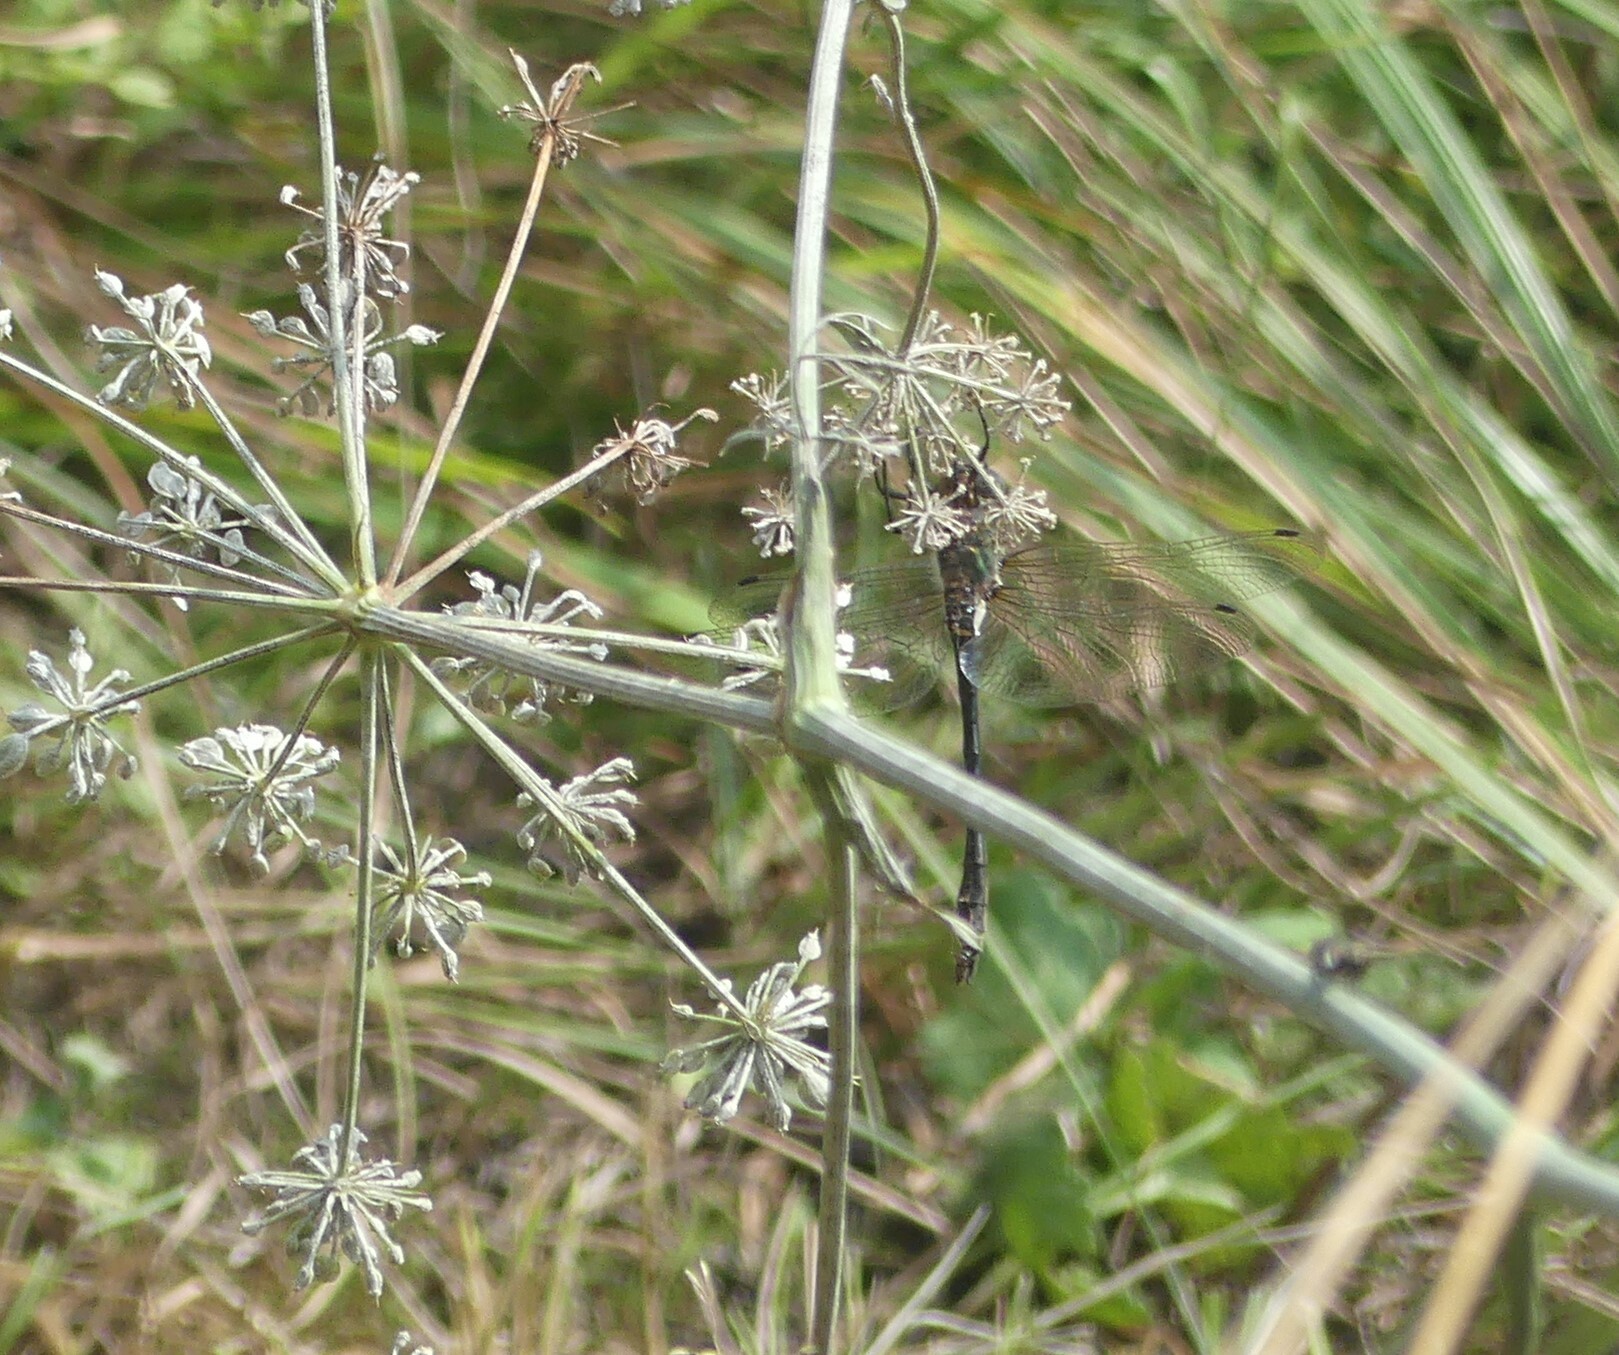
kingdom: Animalia
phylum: Arthropoda
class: Insecta
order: Odonata
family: Corduliidae
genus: Oxygastra
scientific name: Oxygastra curtisii
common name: Orange-spotted emerald
